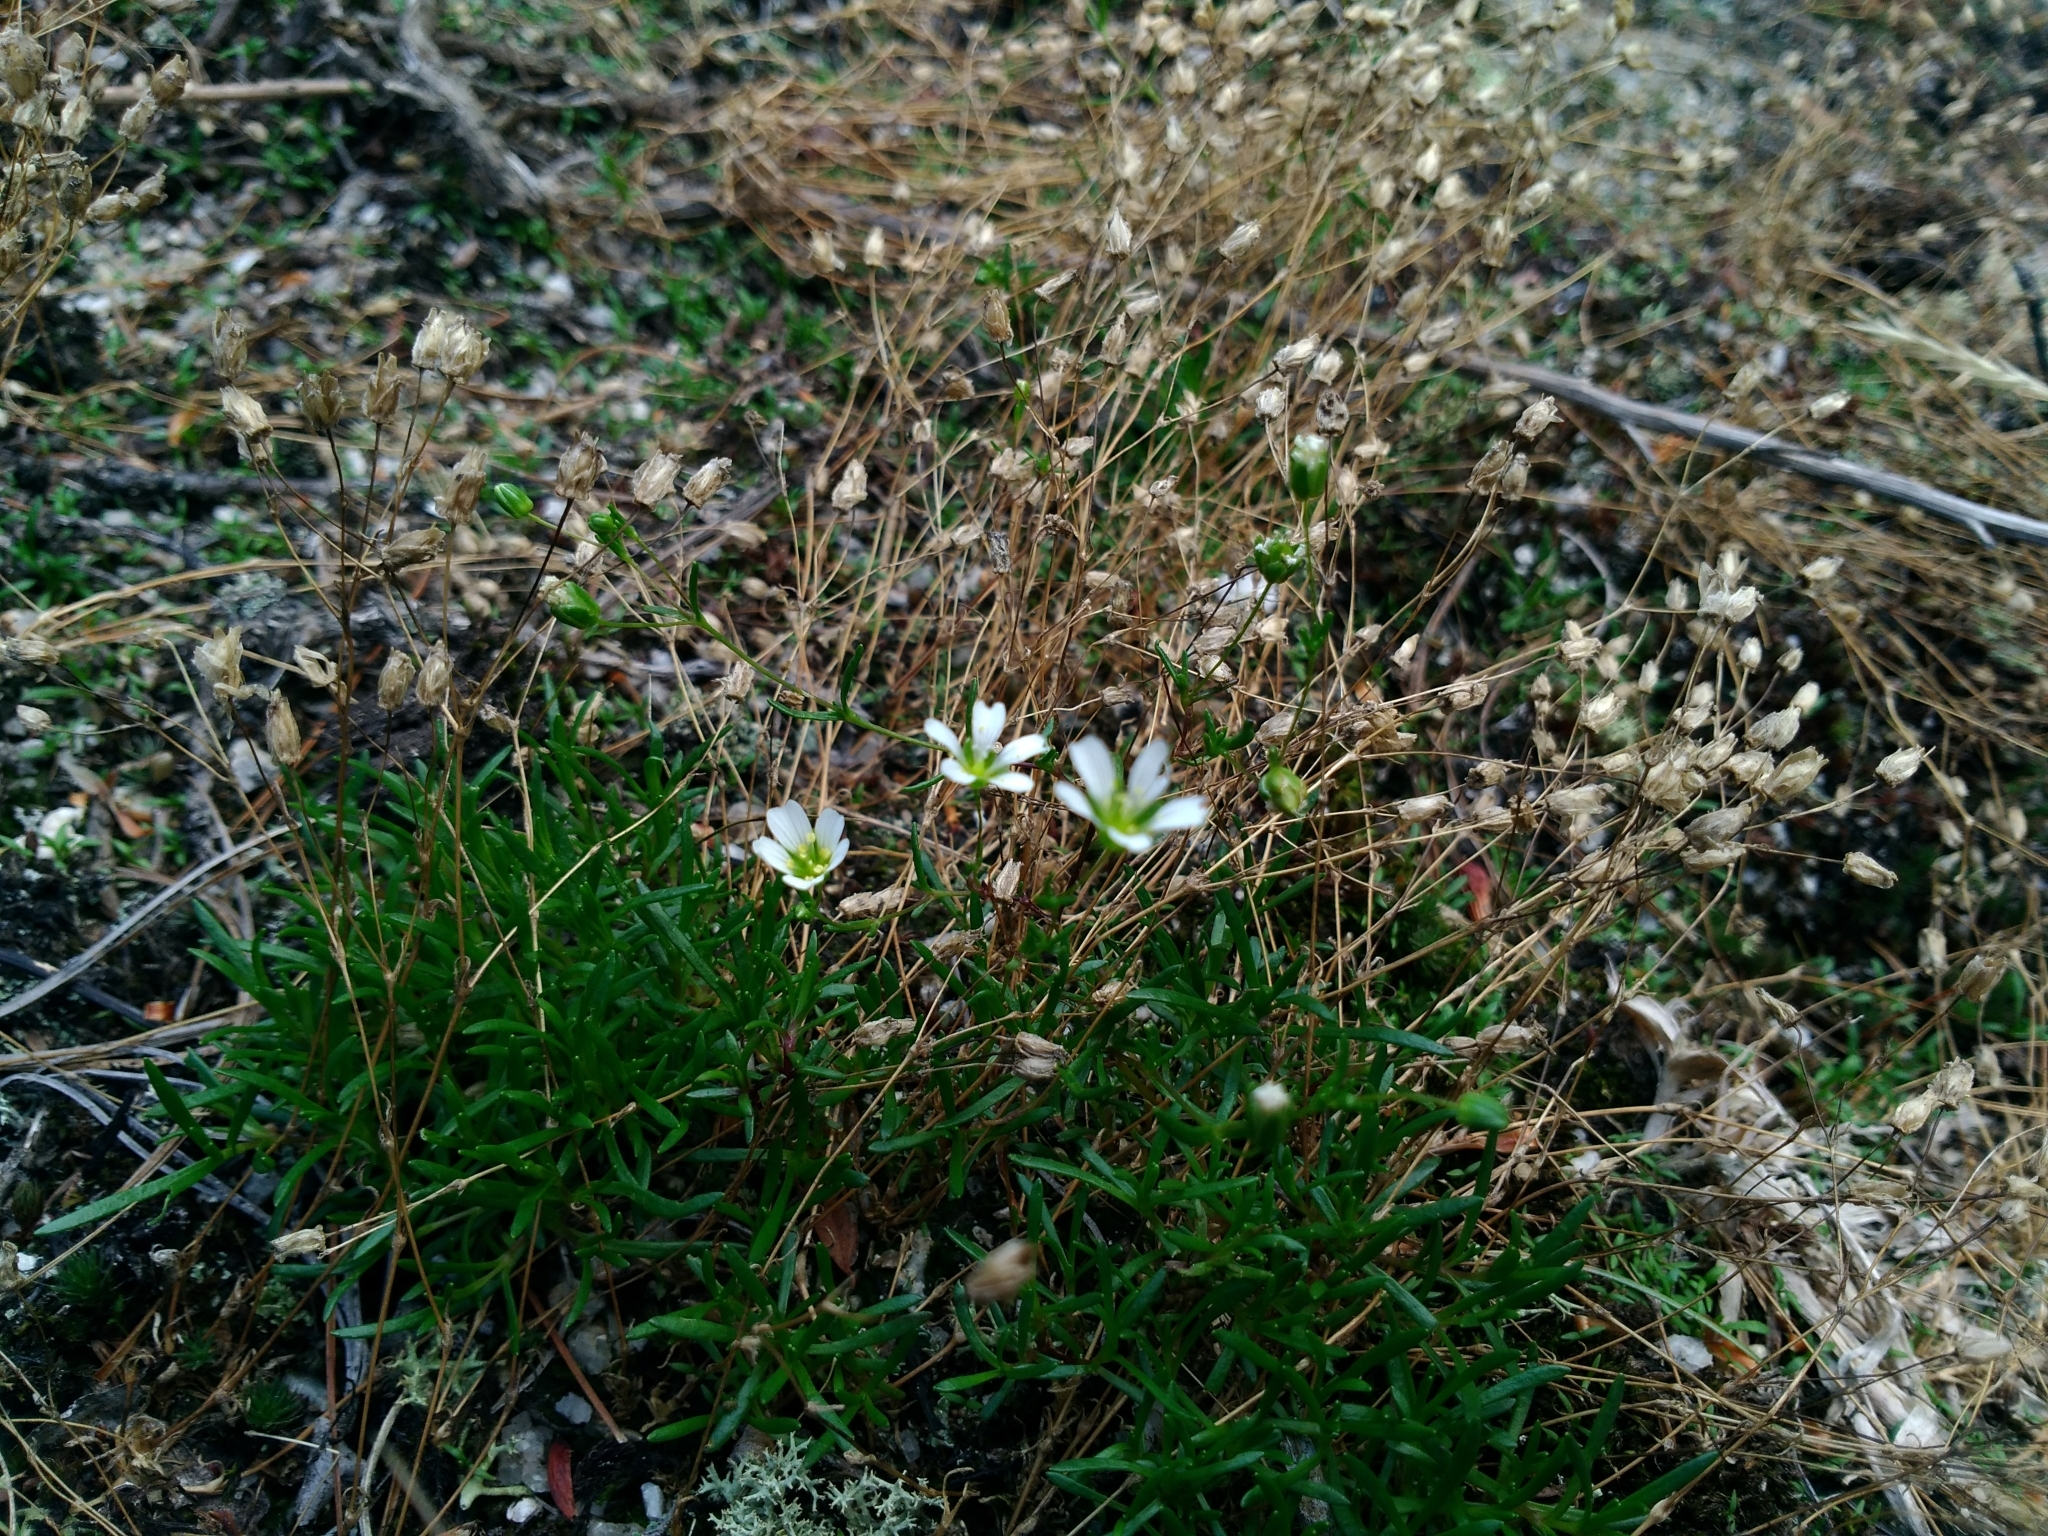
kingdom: Plantae
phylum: Tracheophyta
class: Magnoliopsida
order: Caryophyllales
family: Caryophyllaceae
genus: Geocarpon
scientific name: Geocarpon groenlandicum
